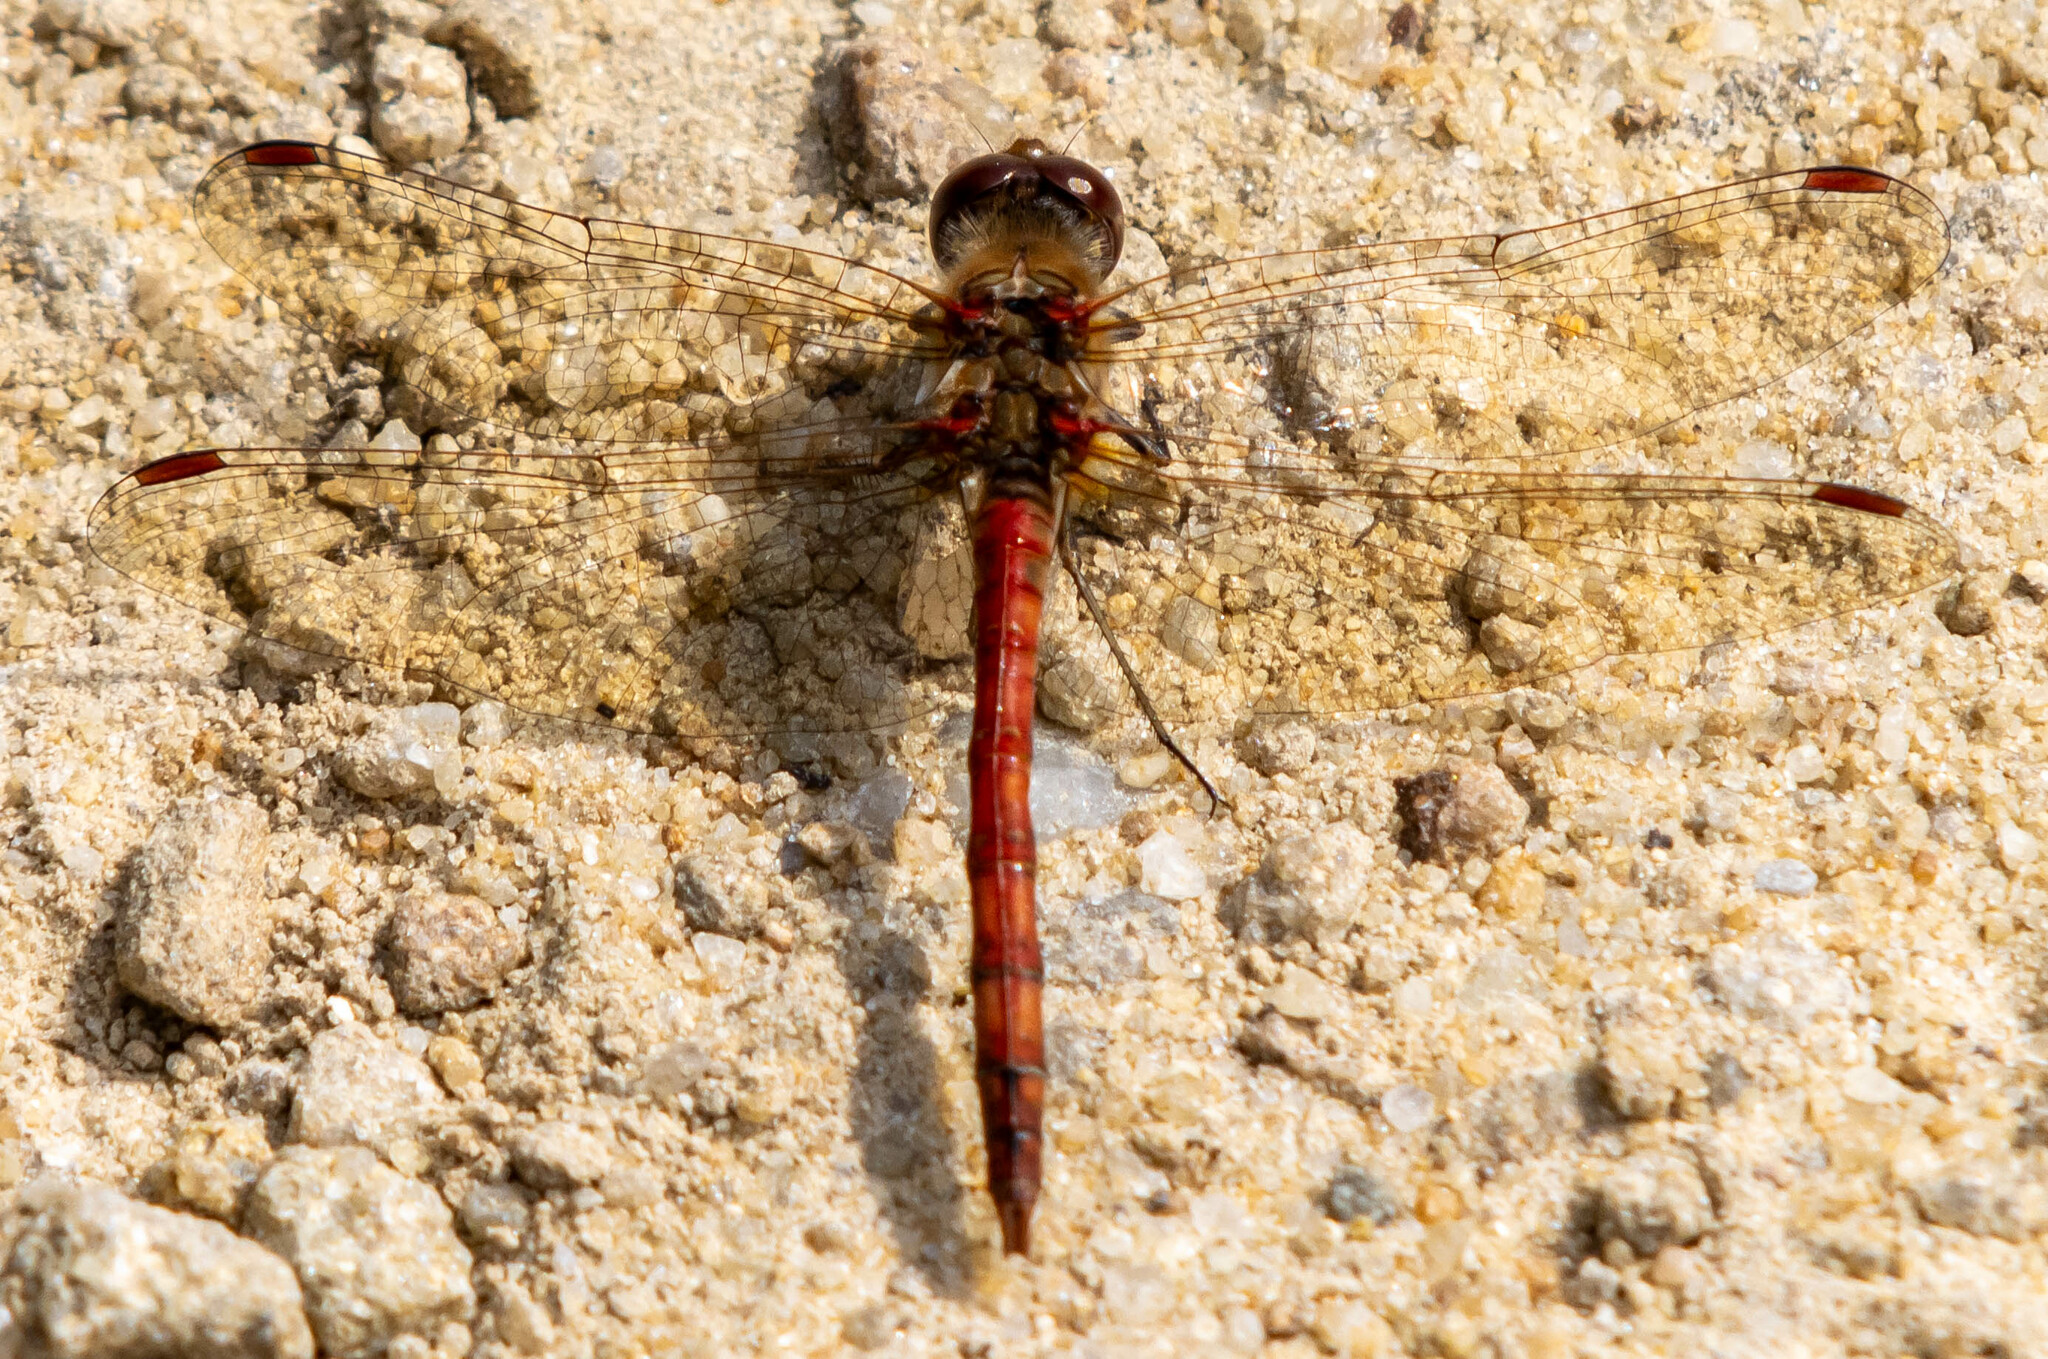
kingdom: Animalia
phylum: Arthropoda
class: Insecta
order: Odonata
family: Libellulidae
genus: Sympetrum
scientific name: Sympetrum striolatum
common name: Common darter
